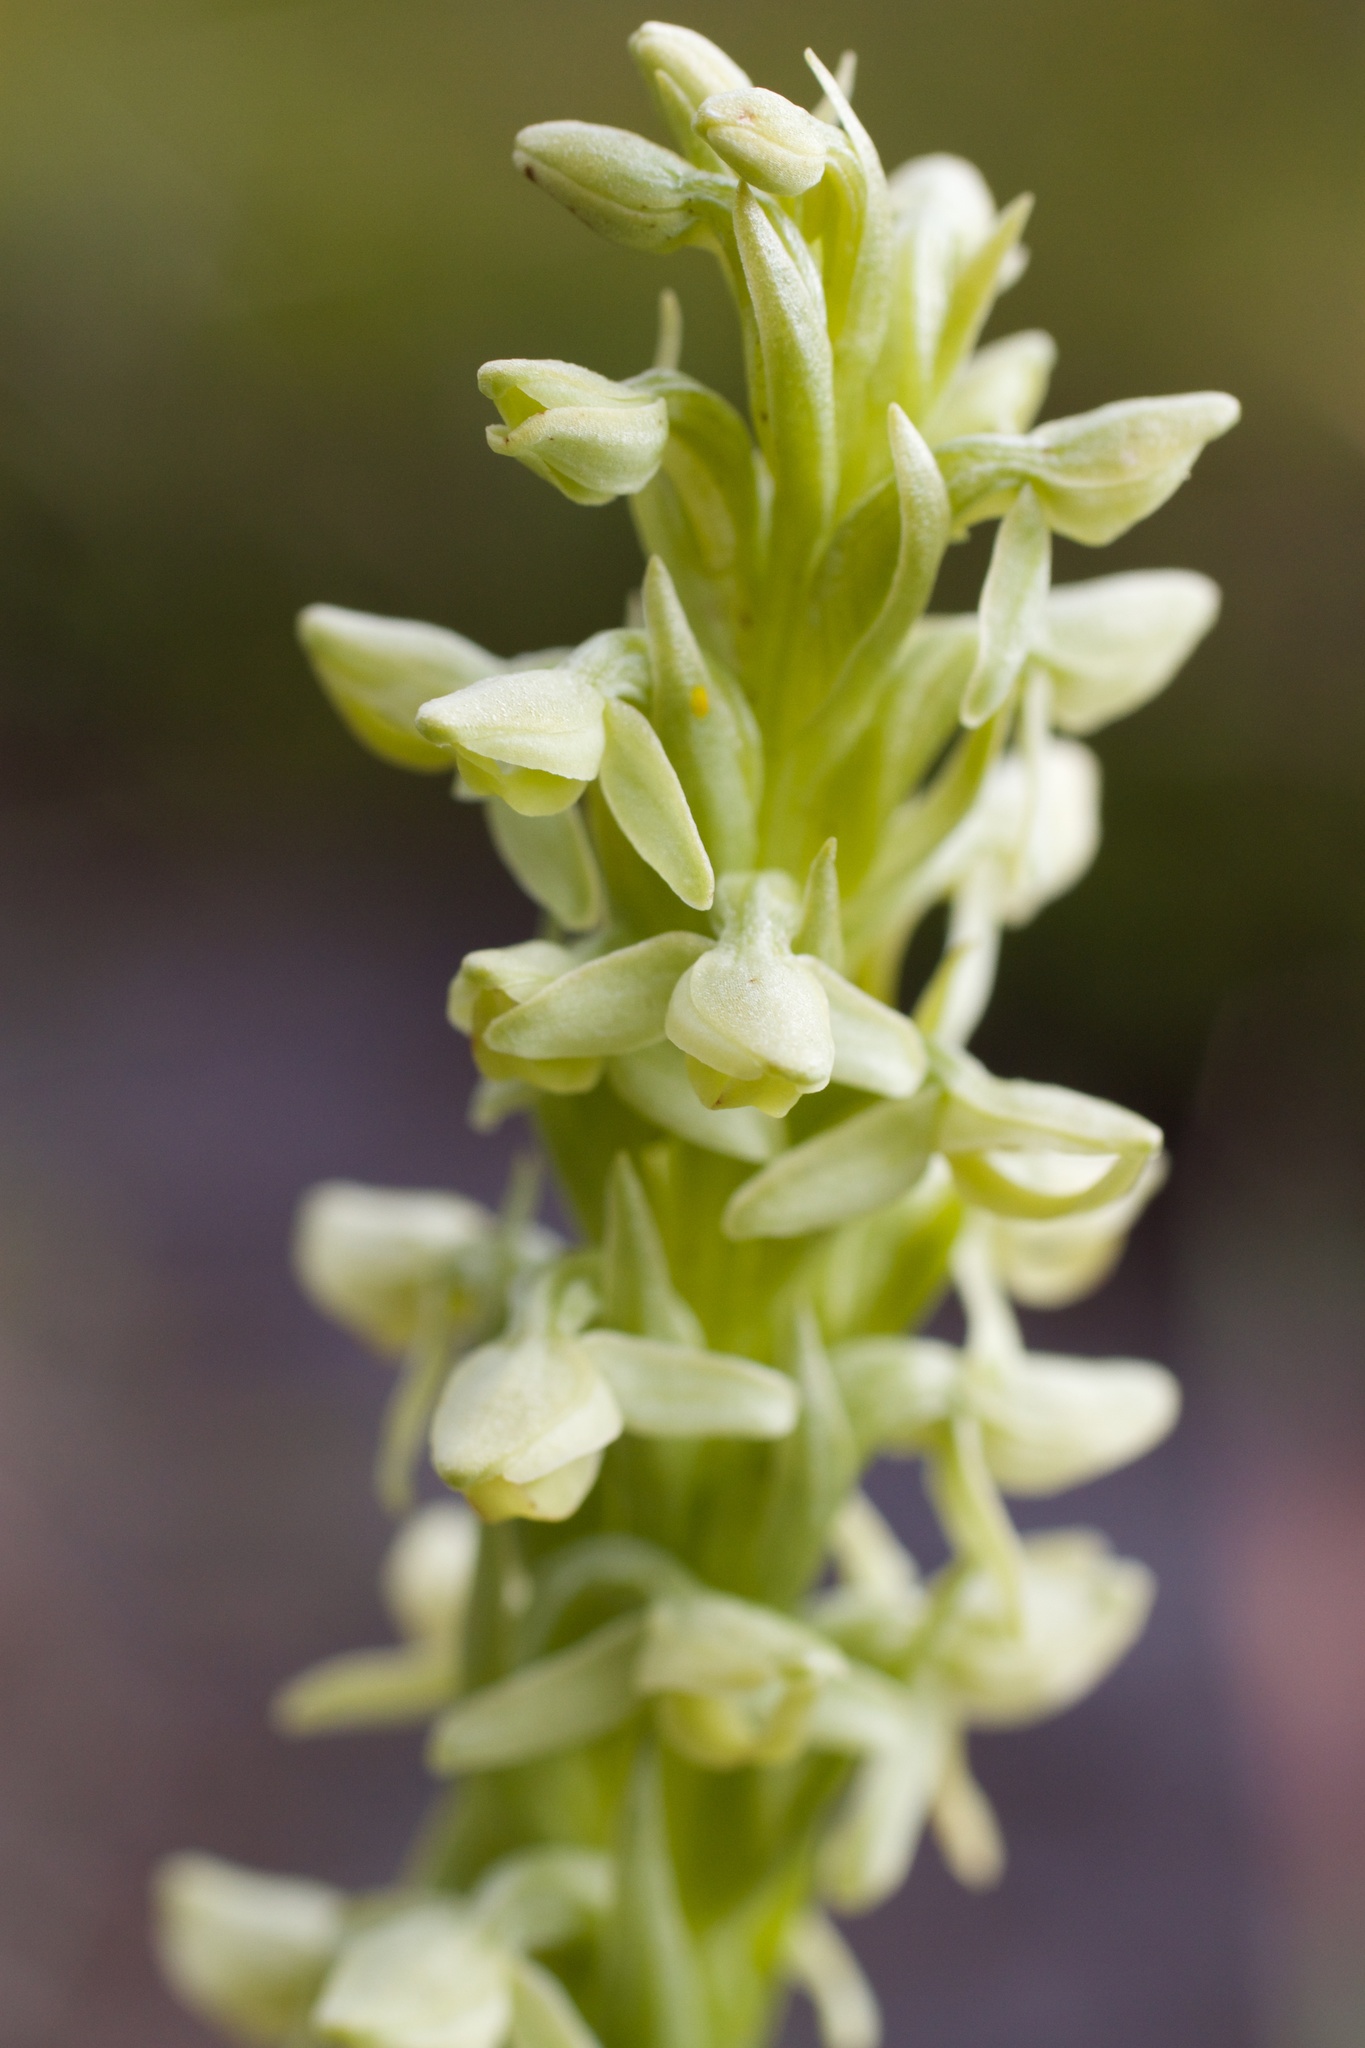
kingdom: Plantae
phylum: Tracheophyta
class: Liliopsida
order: Asparagales
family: Orchidaceae
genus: Platanthera
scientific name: Platanthera hyperborea
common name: Northern green orchid
